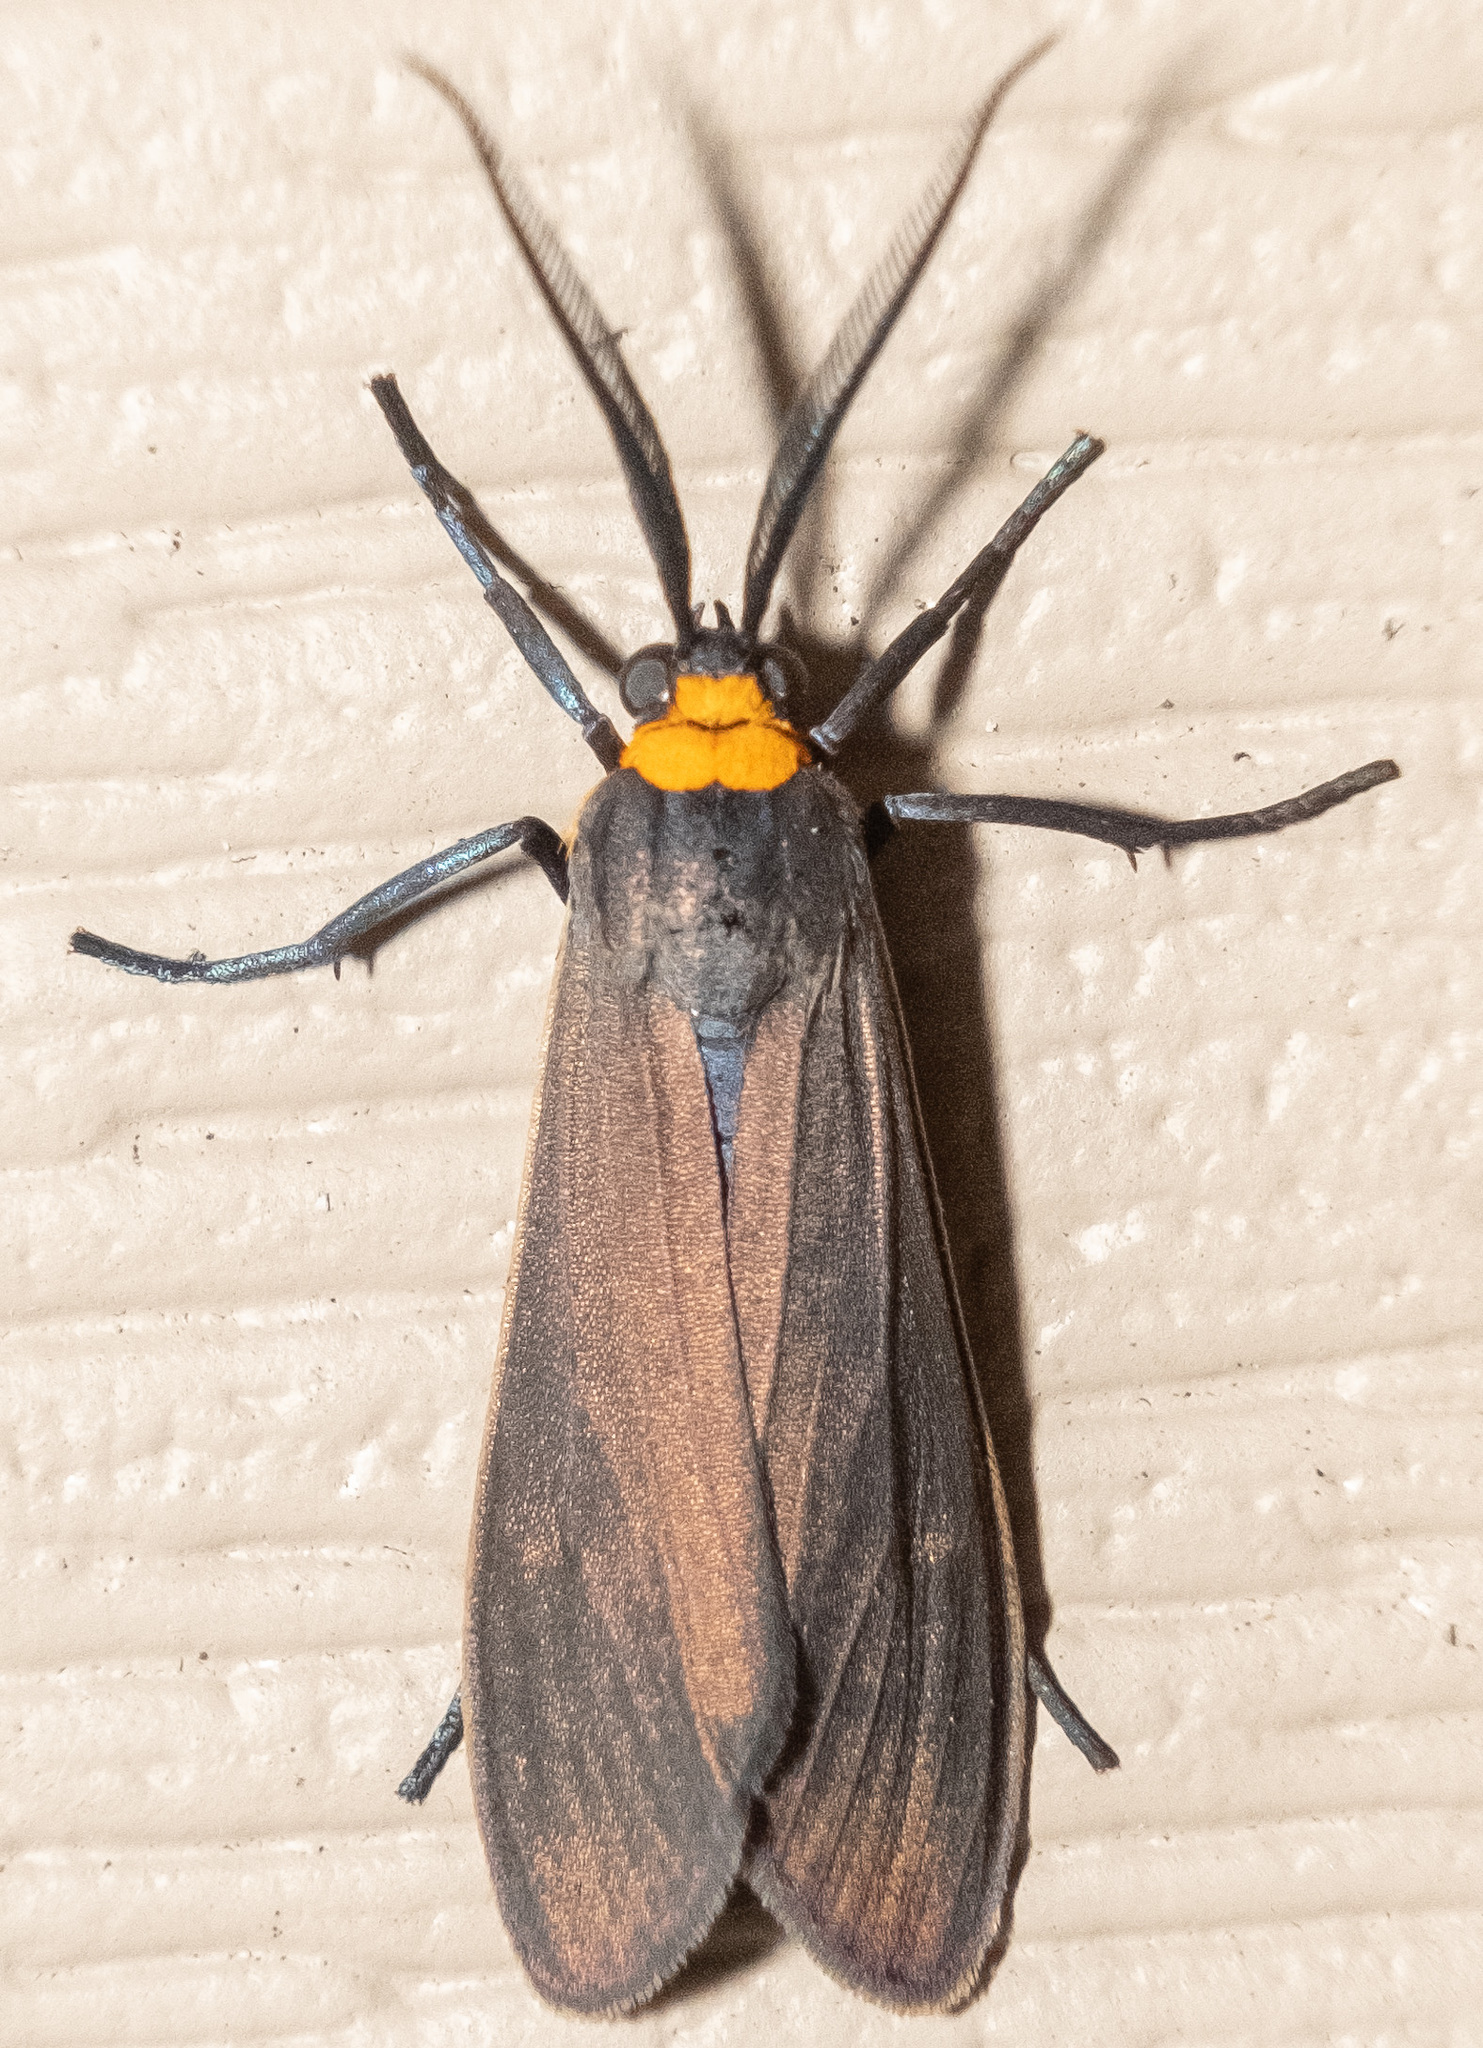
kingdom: Animalia
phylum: Arthropoda
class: Insecta
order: Lepidoptera
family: Erebidae
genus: Cisseps
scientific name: Cisseps fulvicollis
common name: Yellow-collared scape moth
